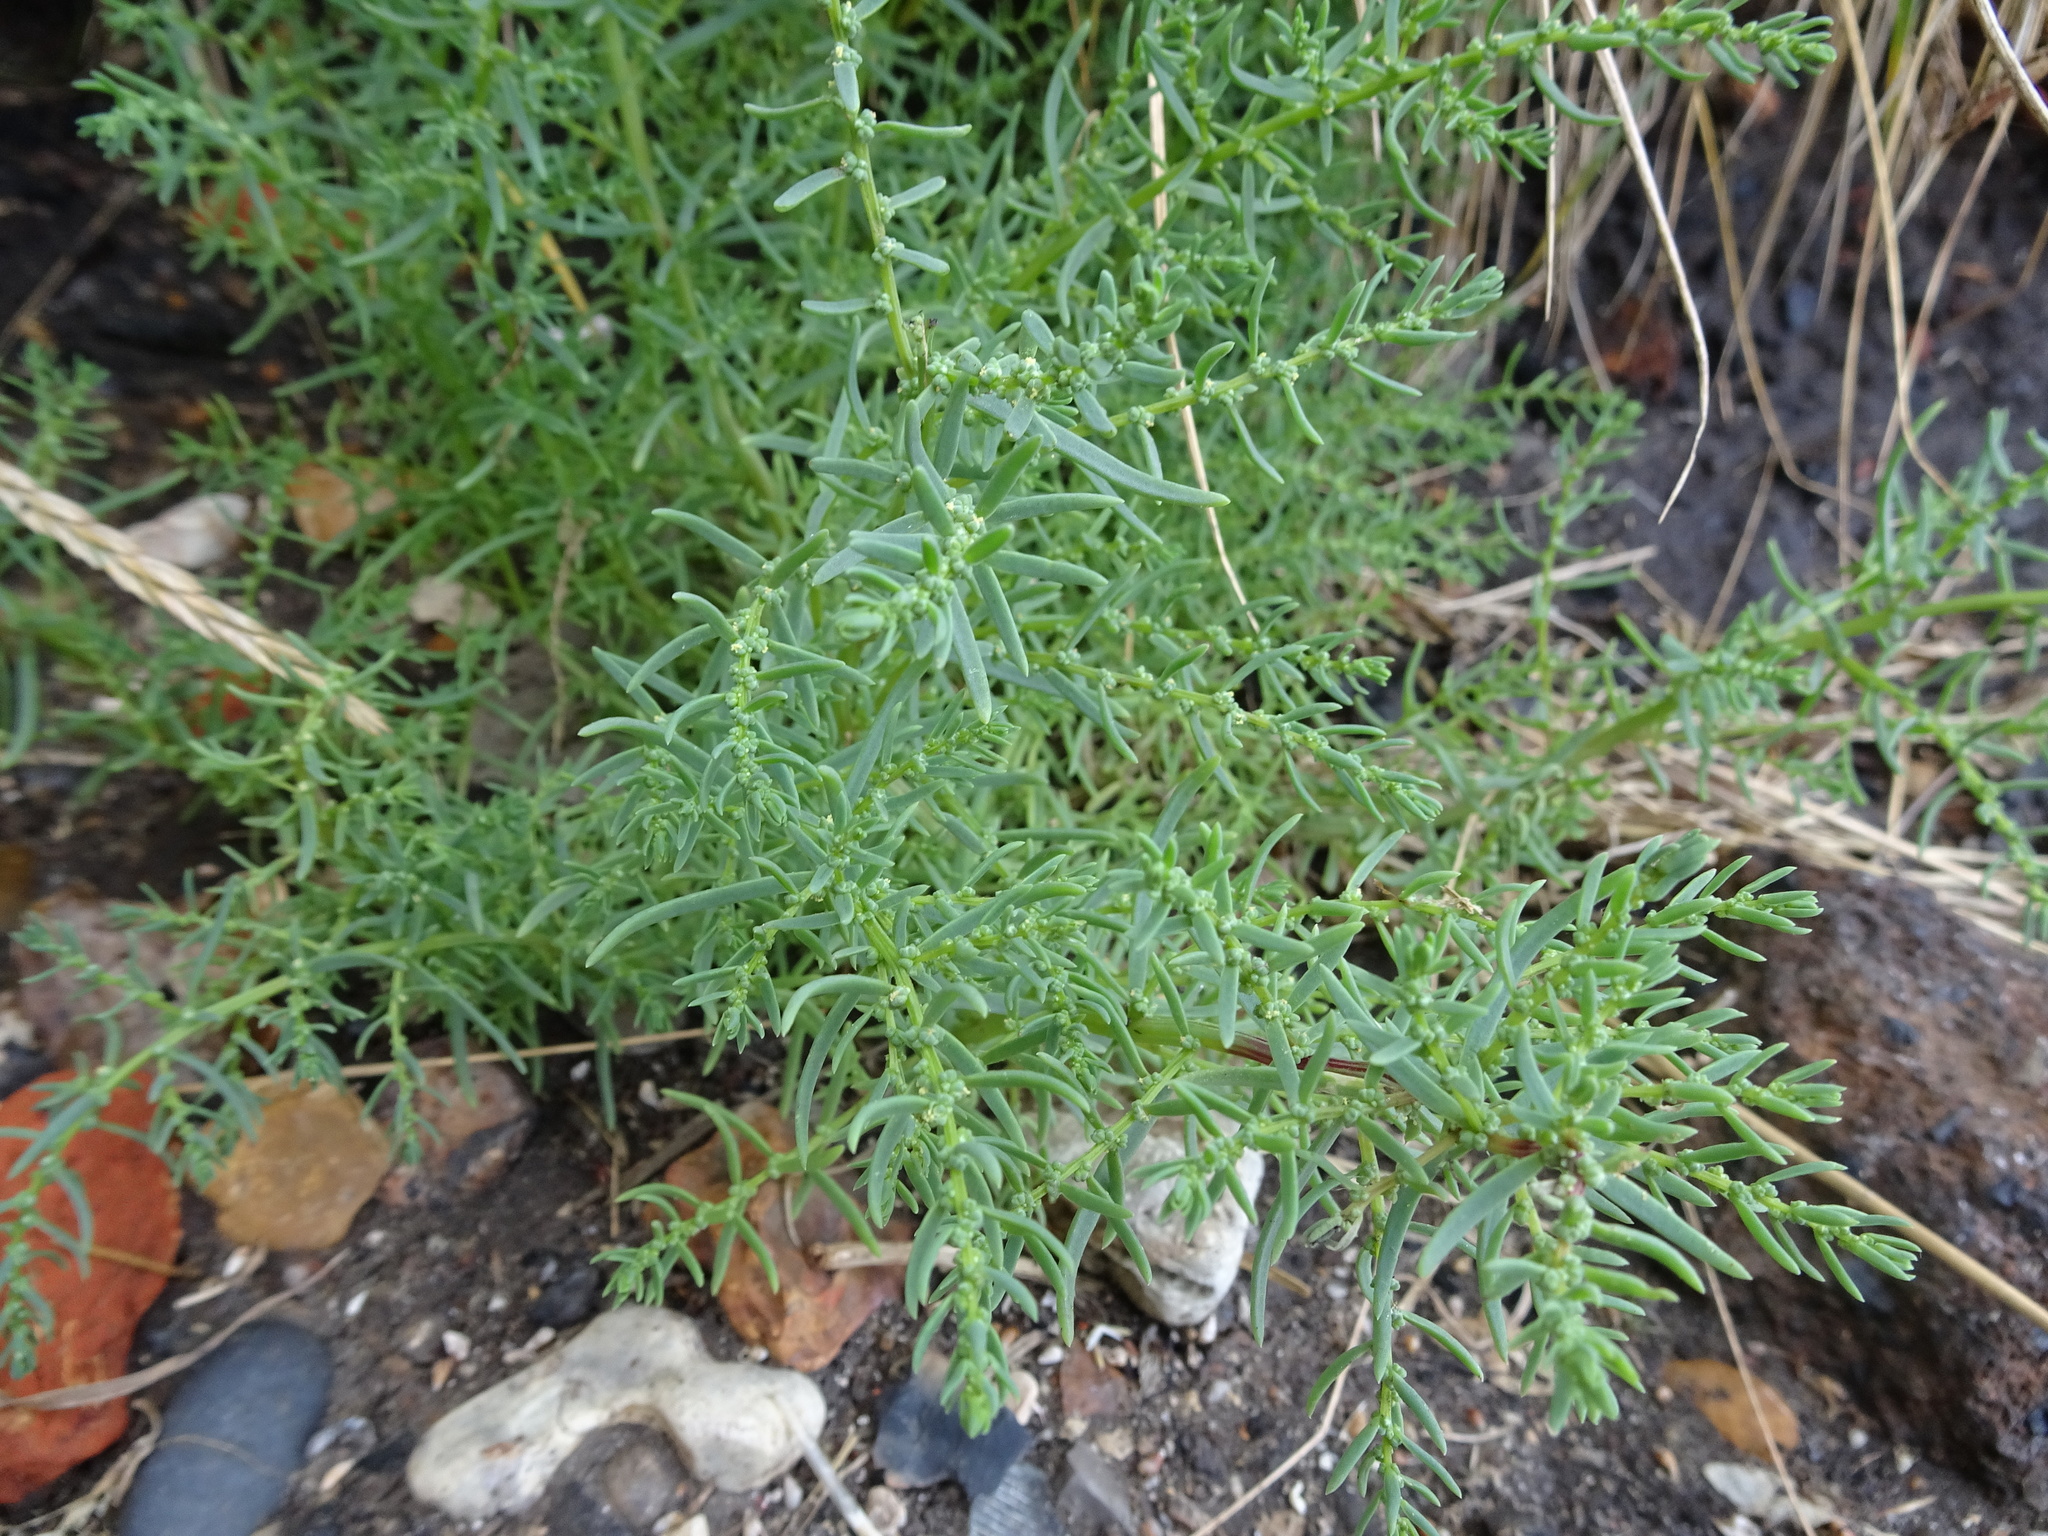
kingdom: Plantae
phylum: Tracheophyta
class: Magnoliopsida
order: Caryophyllales
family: Amaranthaceae
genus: Suaeda
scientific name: Suaeda maritima
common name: Annual sea-blite
